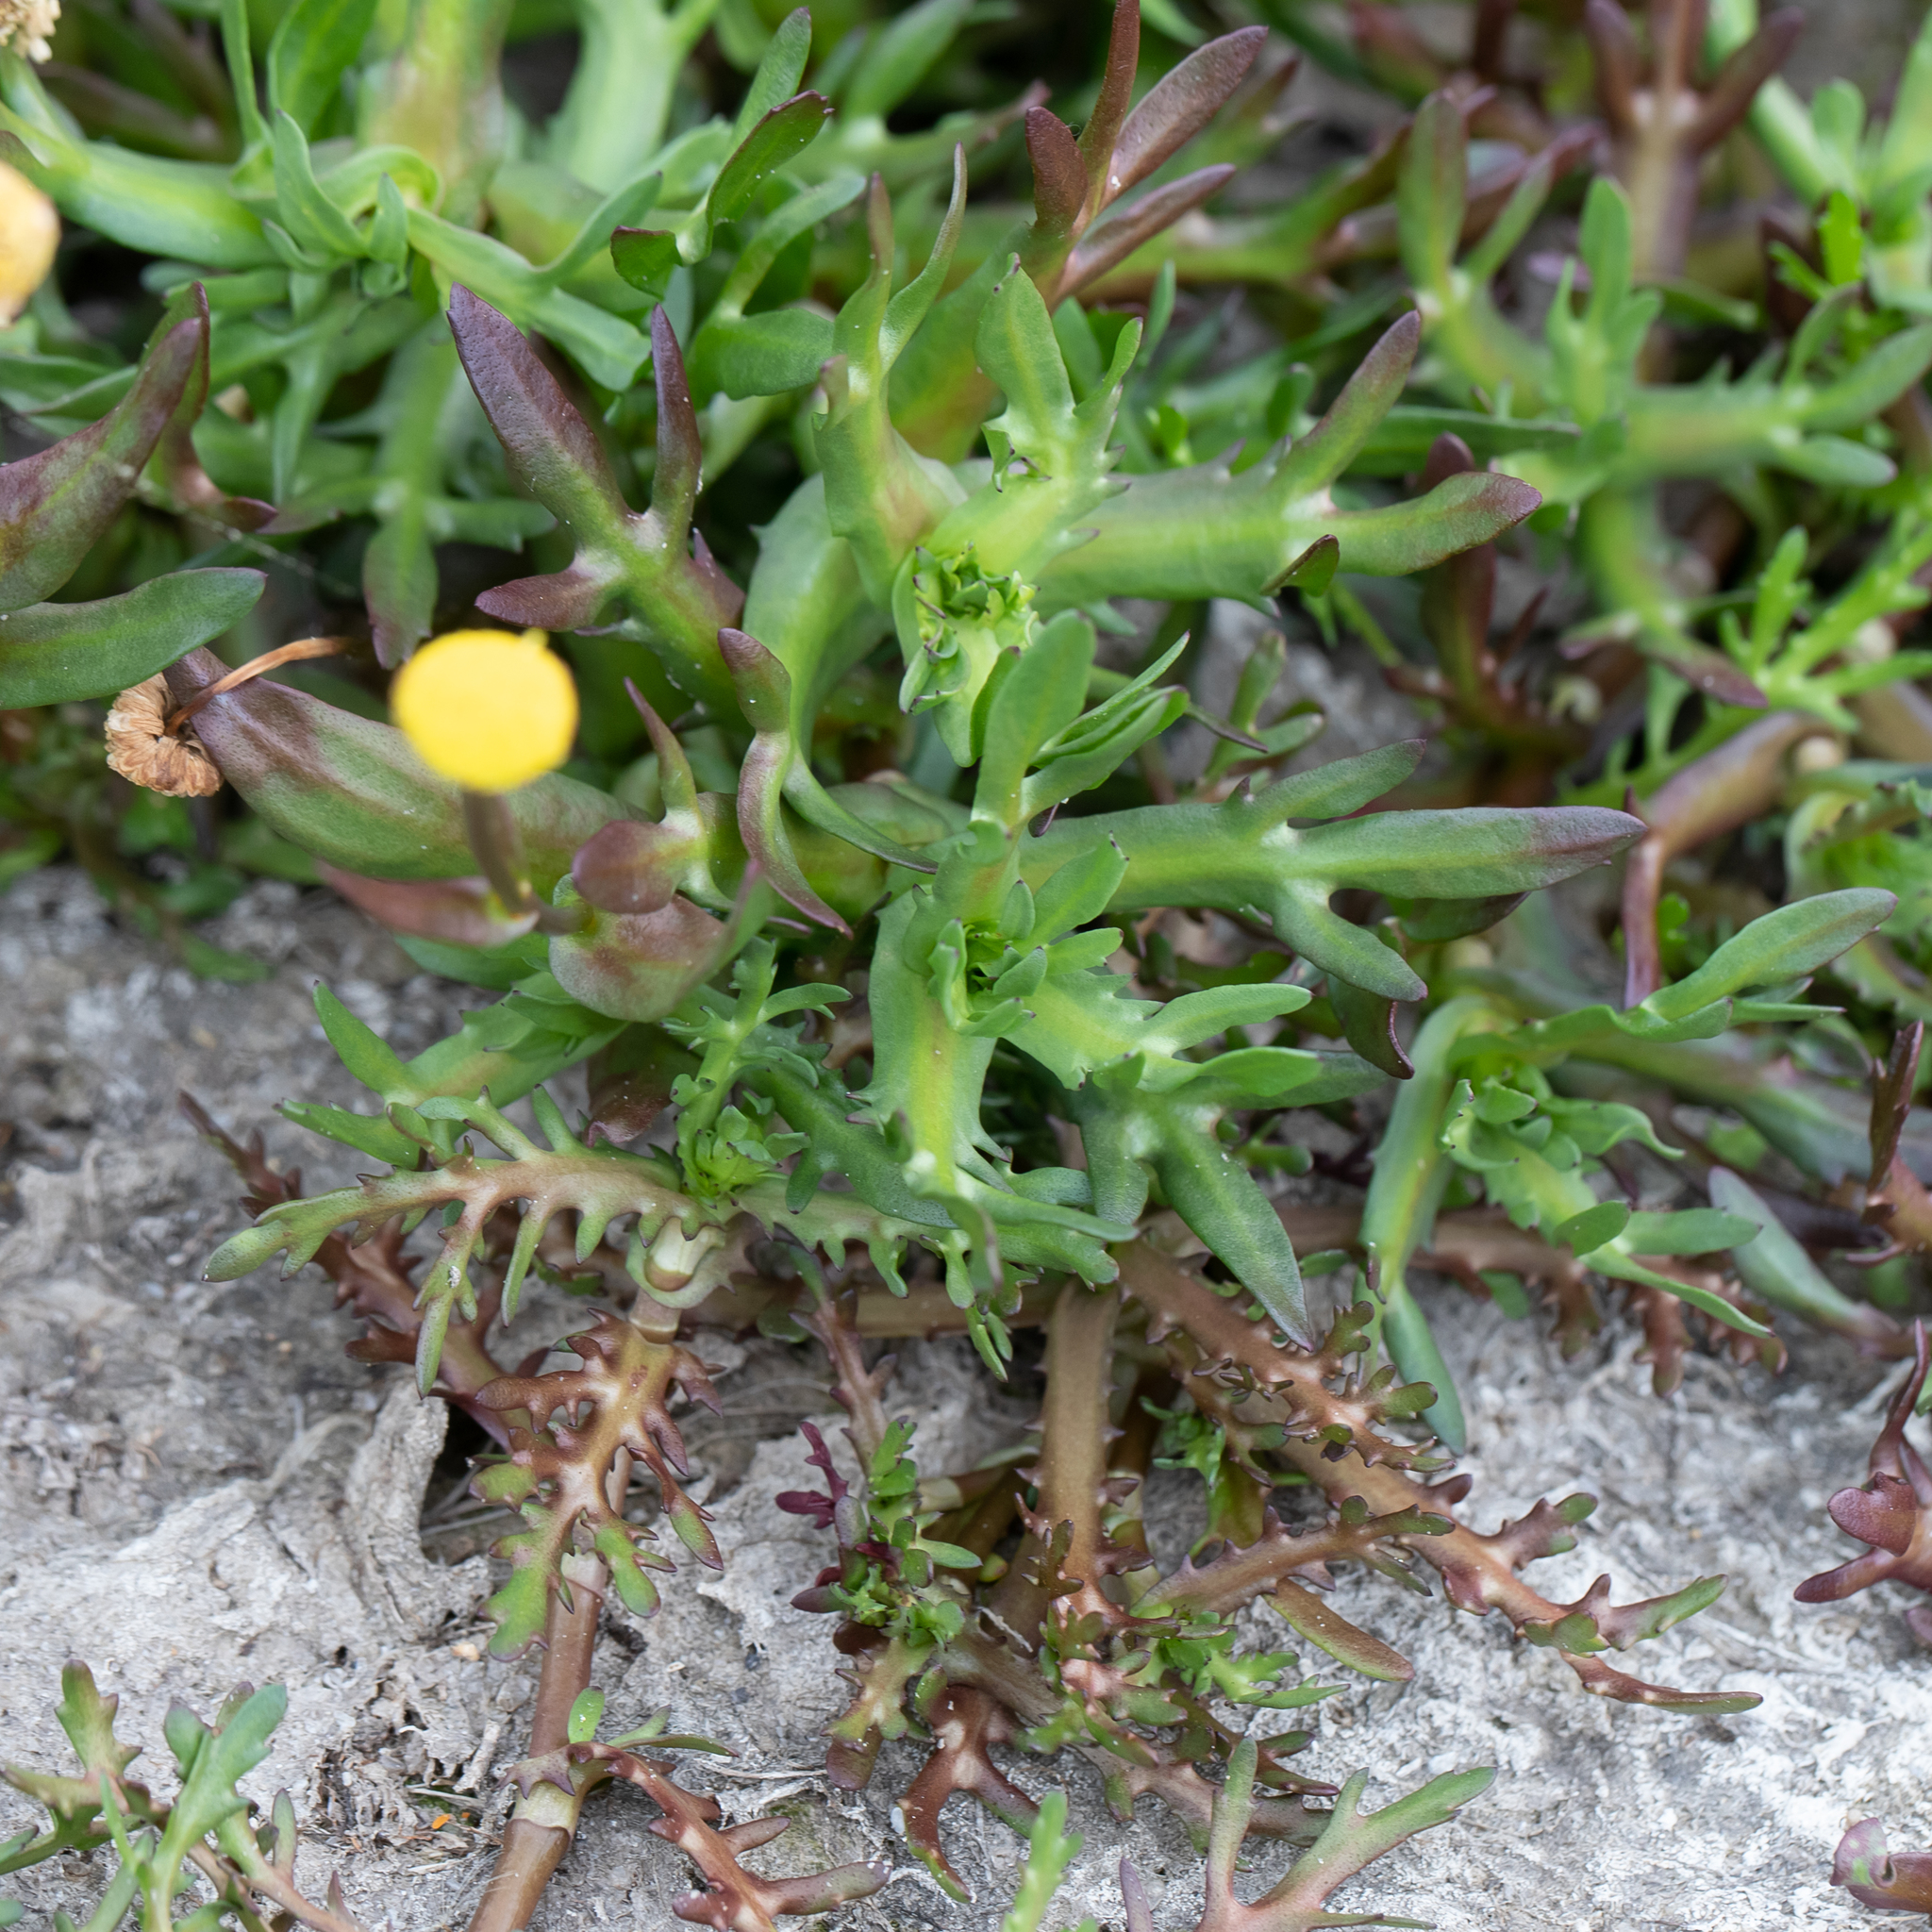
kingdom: Plantae
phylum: Tracheophyta
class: Magnoliopsida
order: Asterales
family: Asteraceae
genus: Cotula
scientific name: Cotula coronopifolia
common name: Buttonweed
